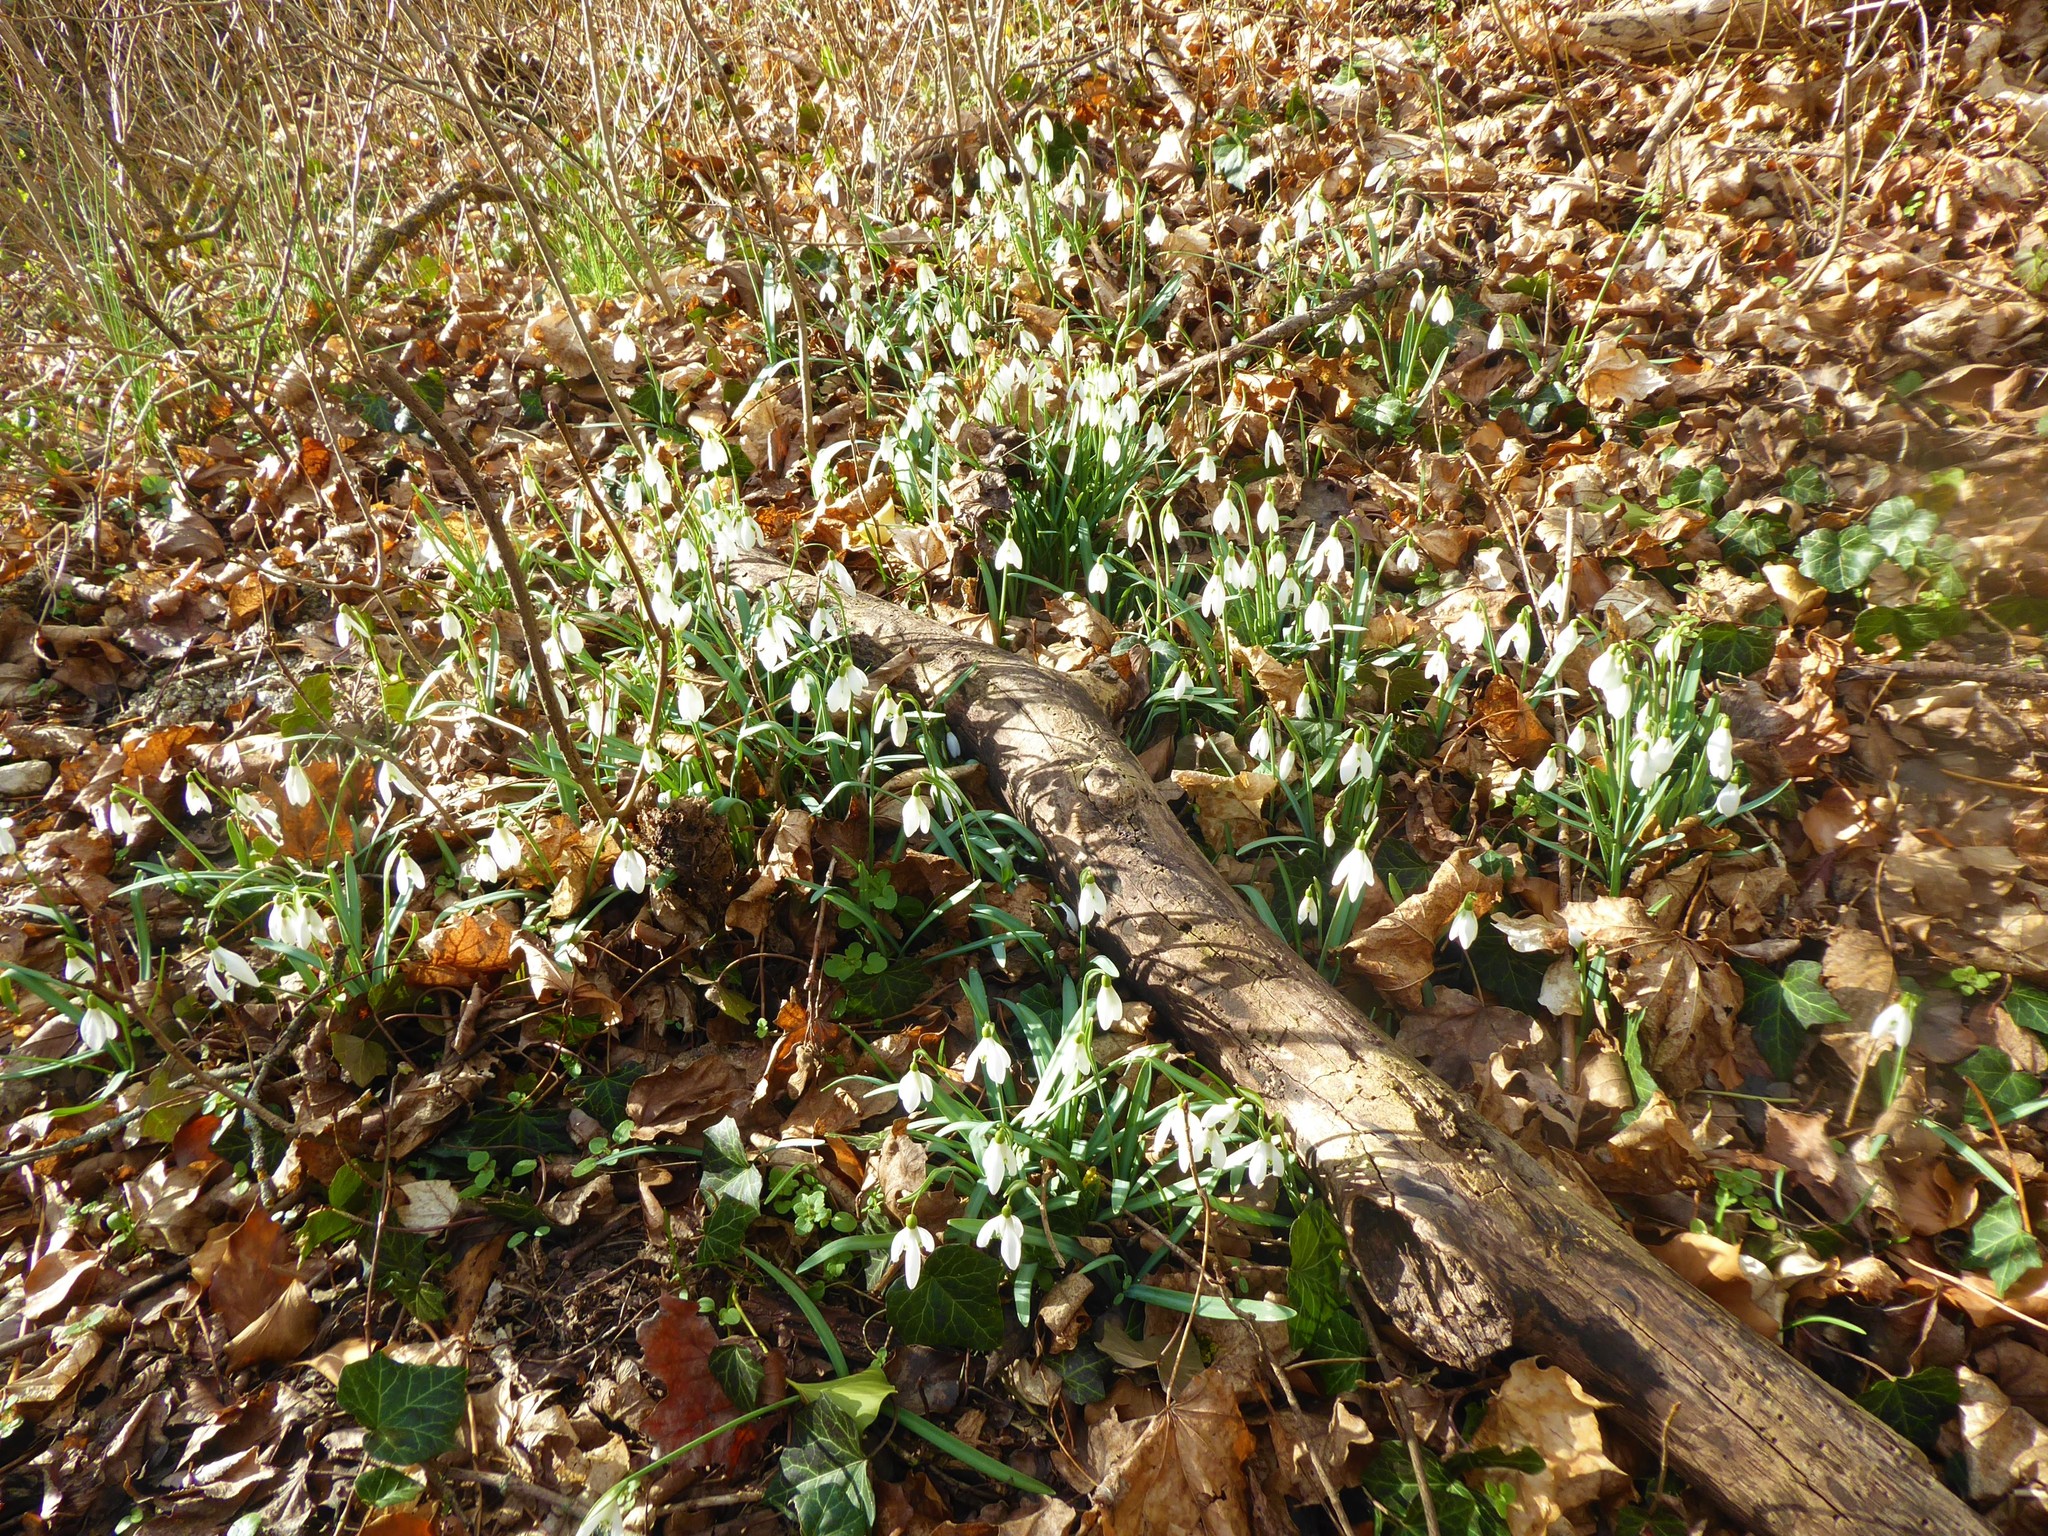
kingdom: Plantae
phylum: Tracheophyta
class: Liliopsida
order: Asparagales
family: Amaryllidaceae
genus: Galanthus
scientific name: Galanthus nivalis
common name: Snowdrop
